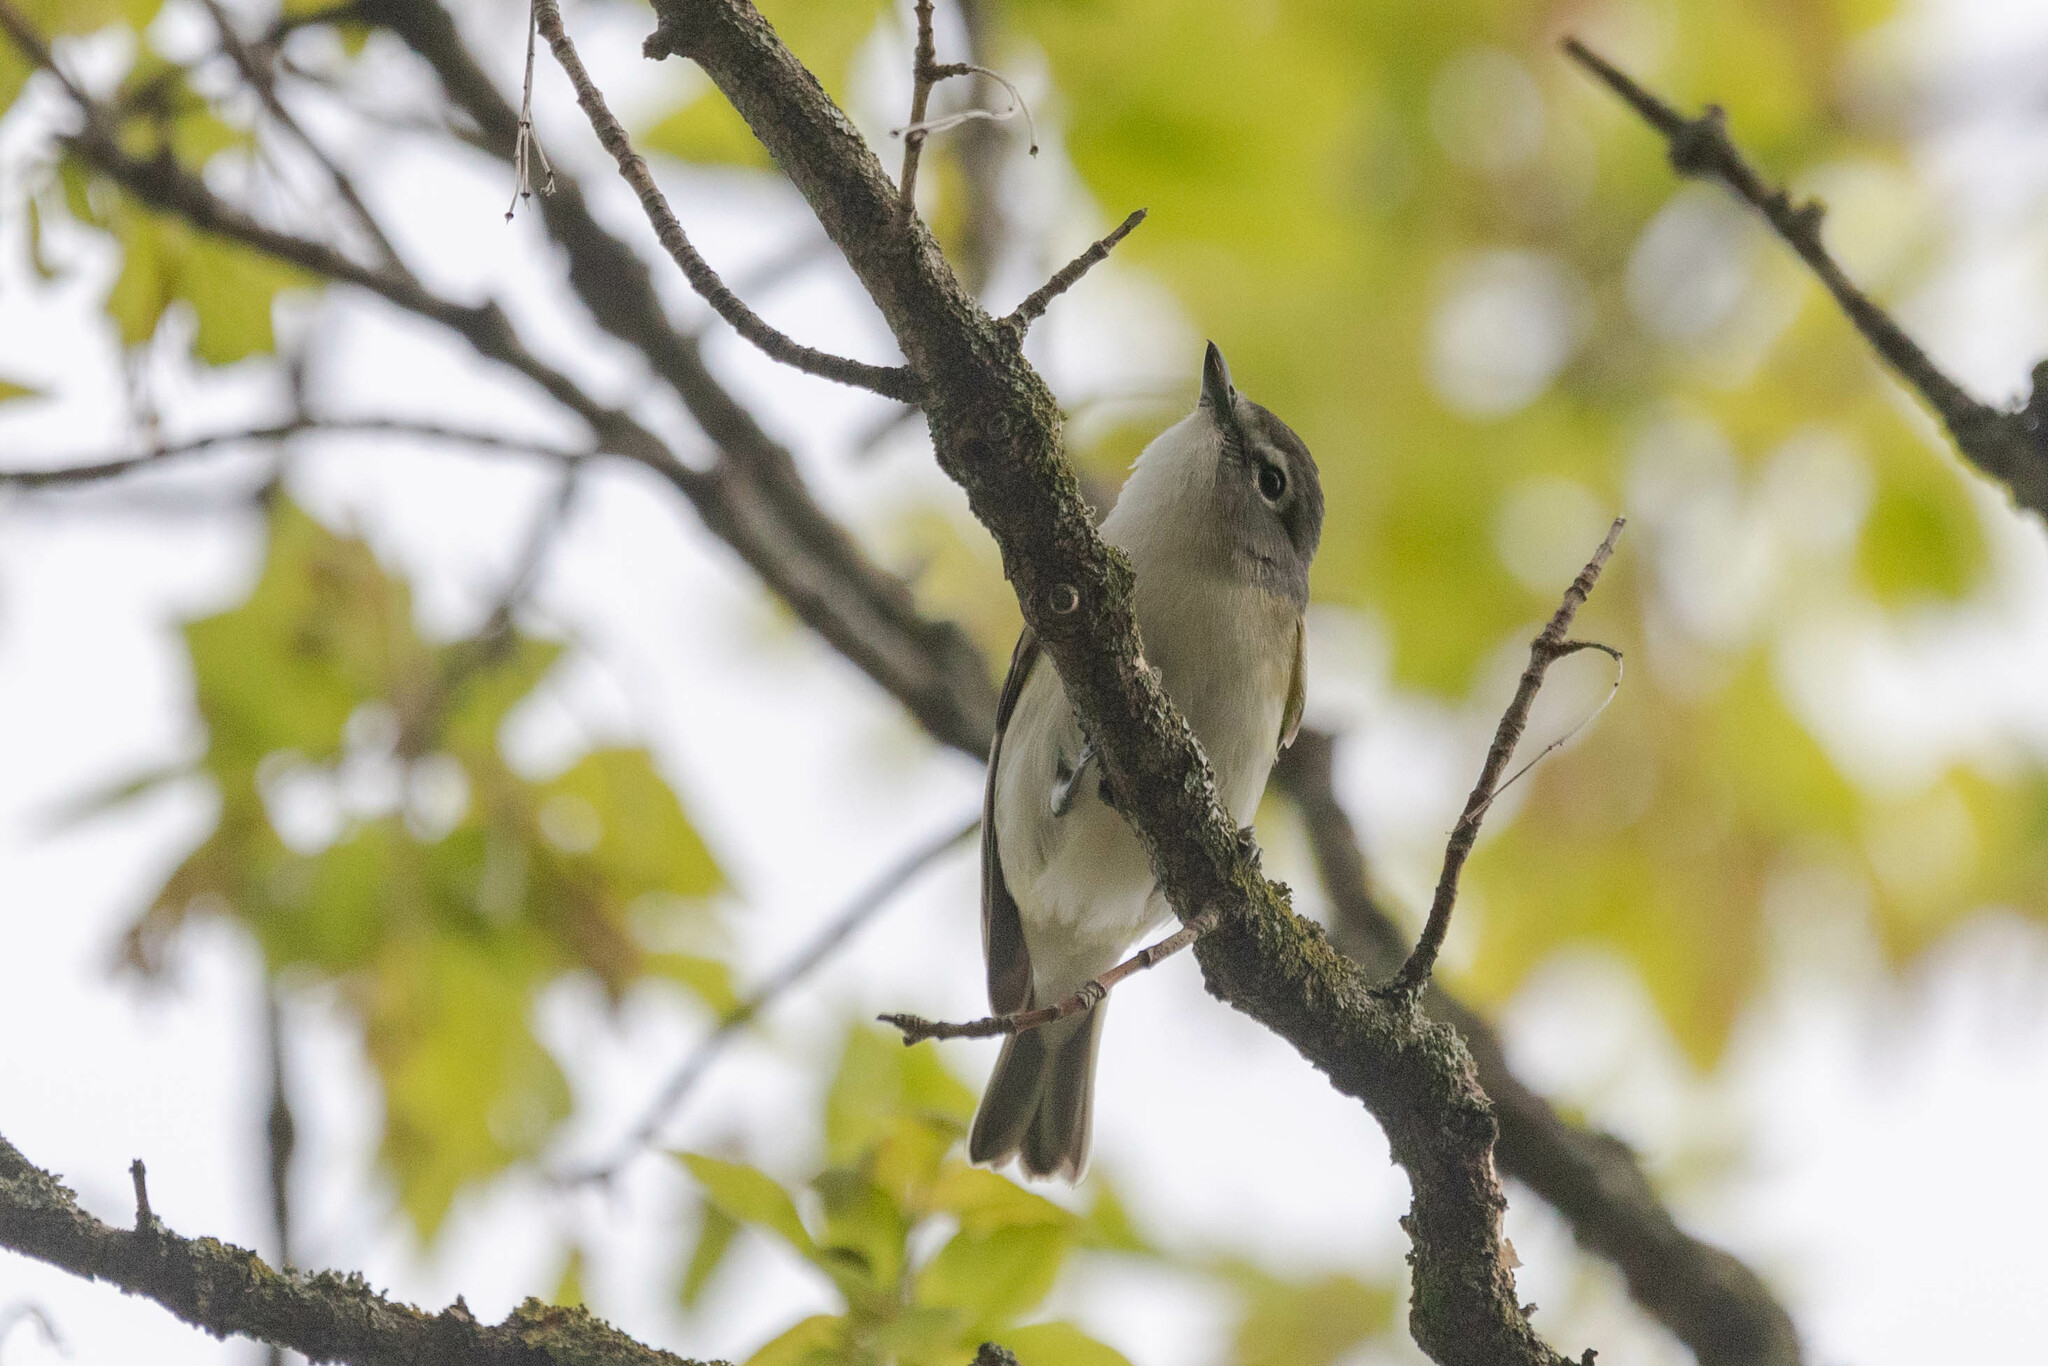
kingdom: Animalia
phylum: Chordata
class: Aves
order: Passeriformes
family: Vireonidae
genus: Vireo
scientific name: Vireo solitarius
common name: Blue-headed vireo
